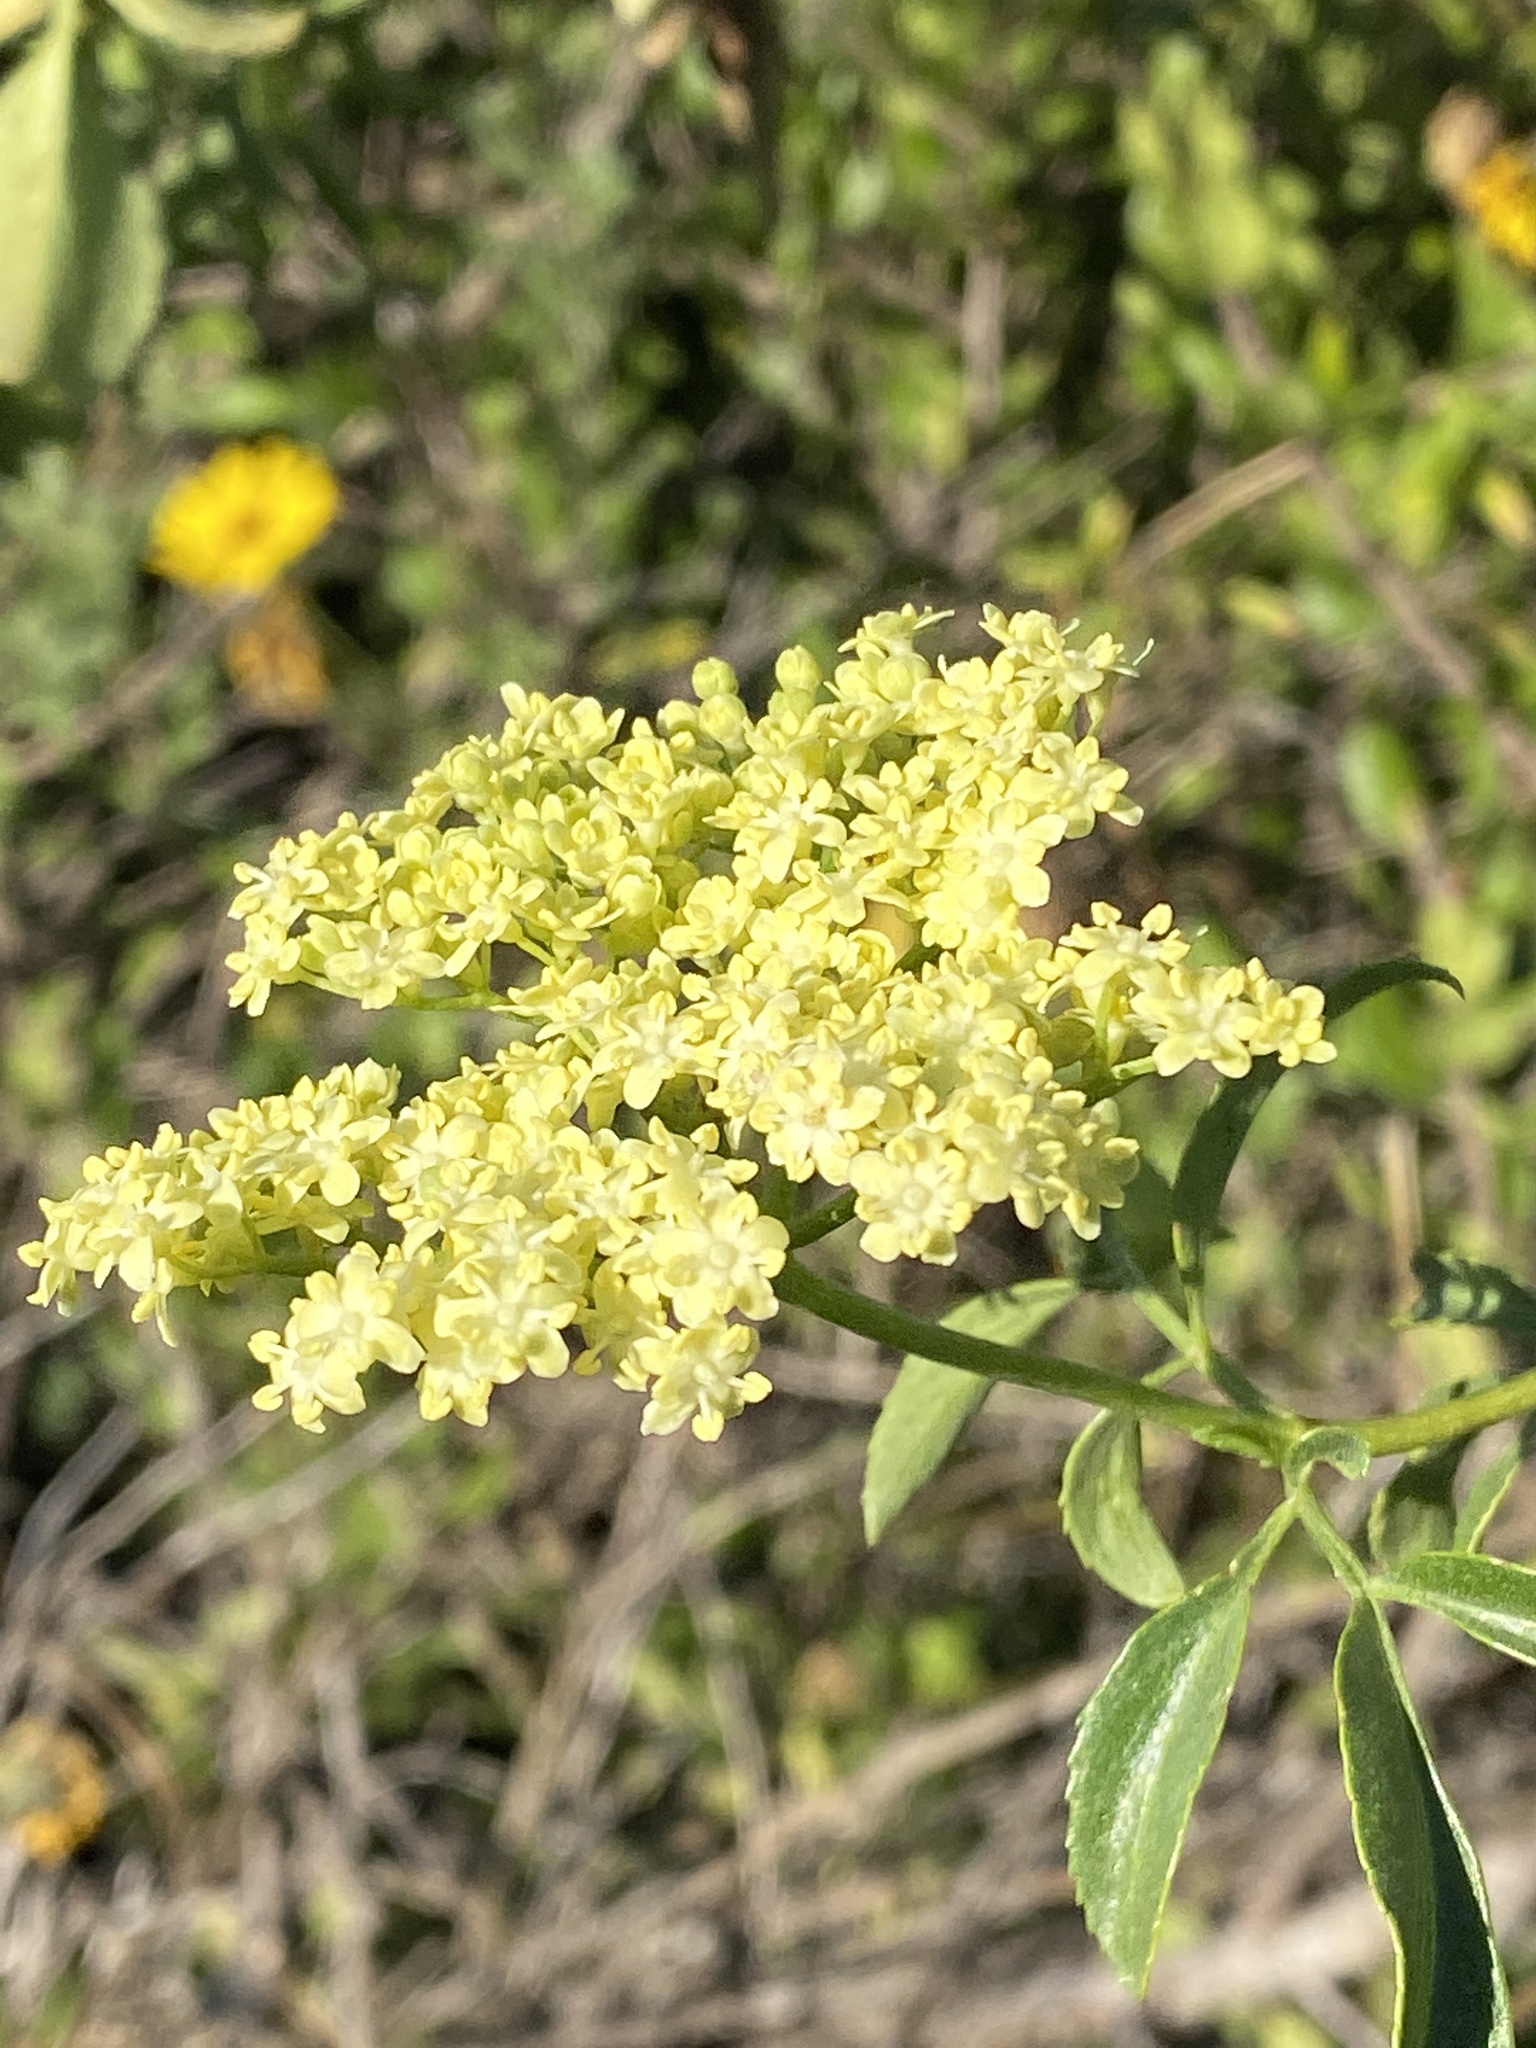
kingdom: Plantae
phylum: Tracheophyta
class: Magnoliopsida
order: Dipsacales
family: Viburnaceae
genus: Sambucus
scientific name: Sambucus cerulea
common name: Blue elder
